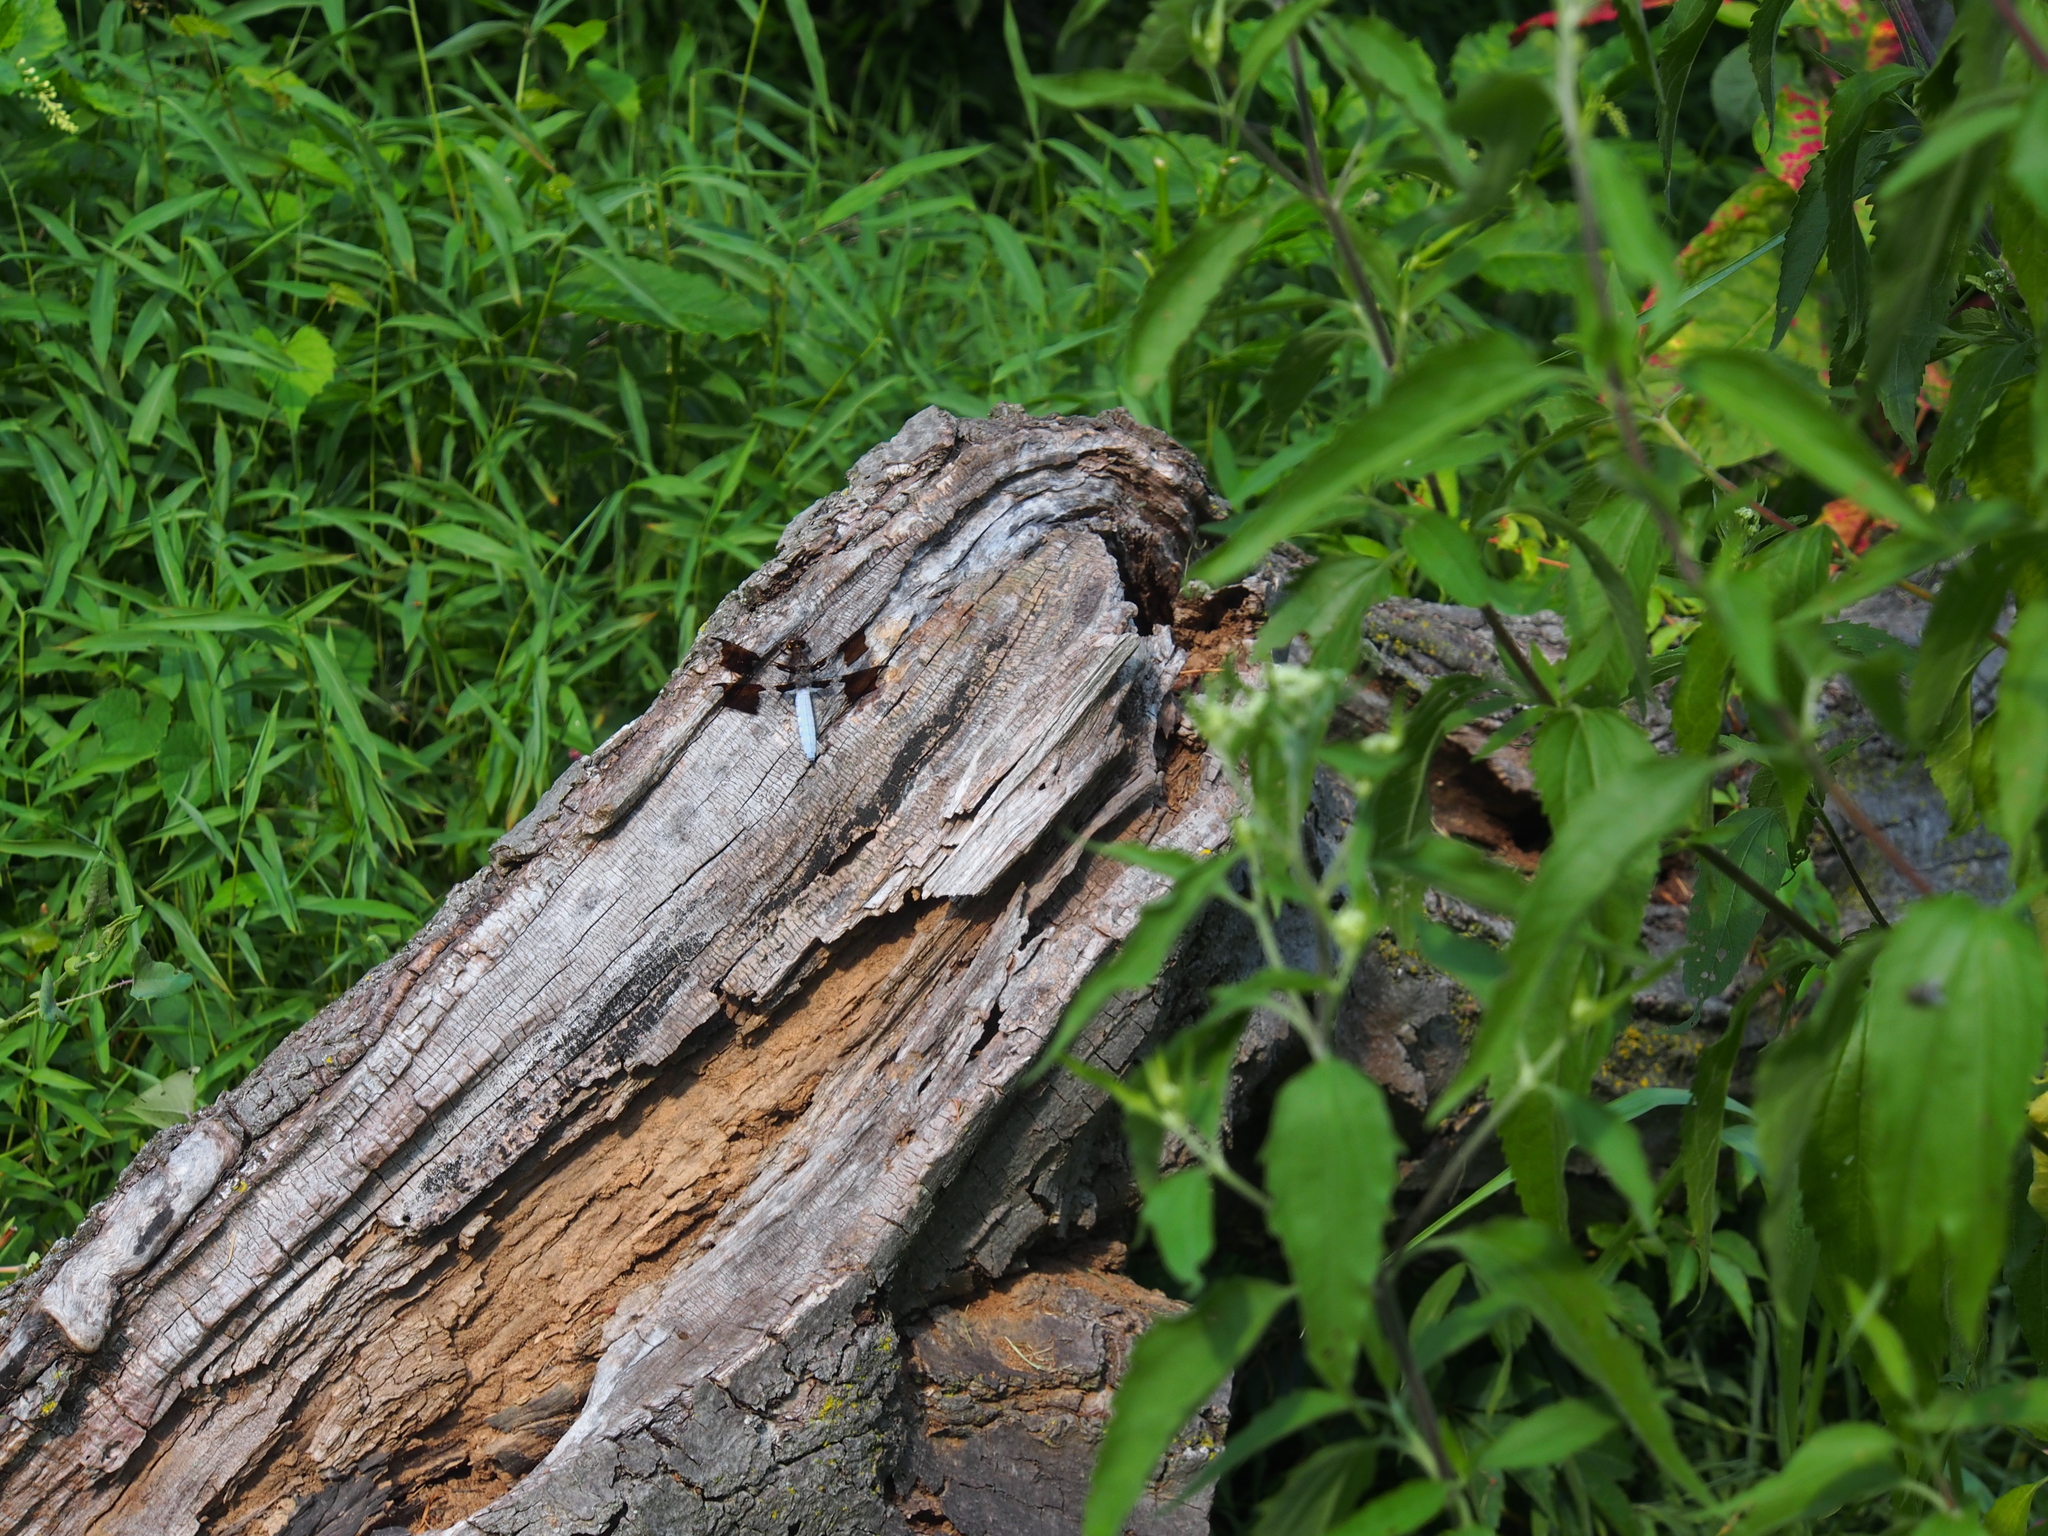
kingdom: Animalia
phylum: Arthropoda
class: Insecta
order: Odonata
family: Libellulidae
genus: Plathemis
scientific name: Plathemis lydia
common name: Common whitetail
